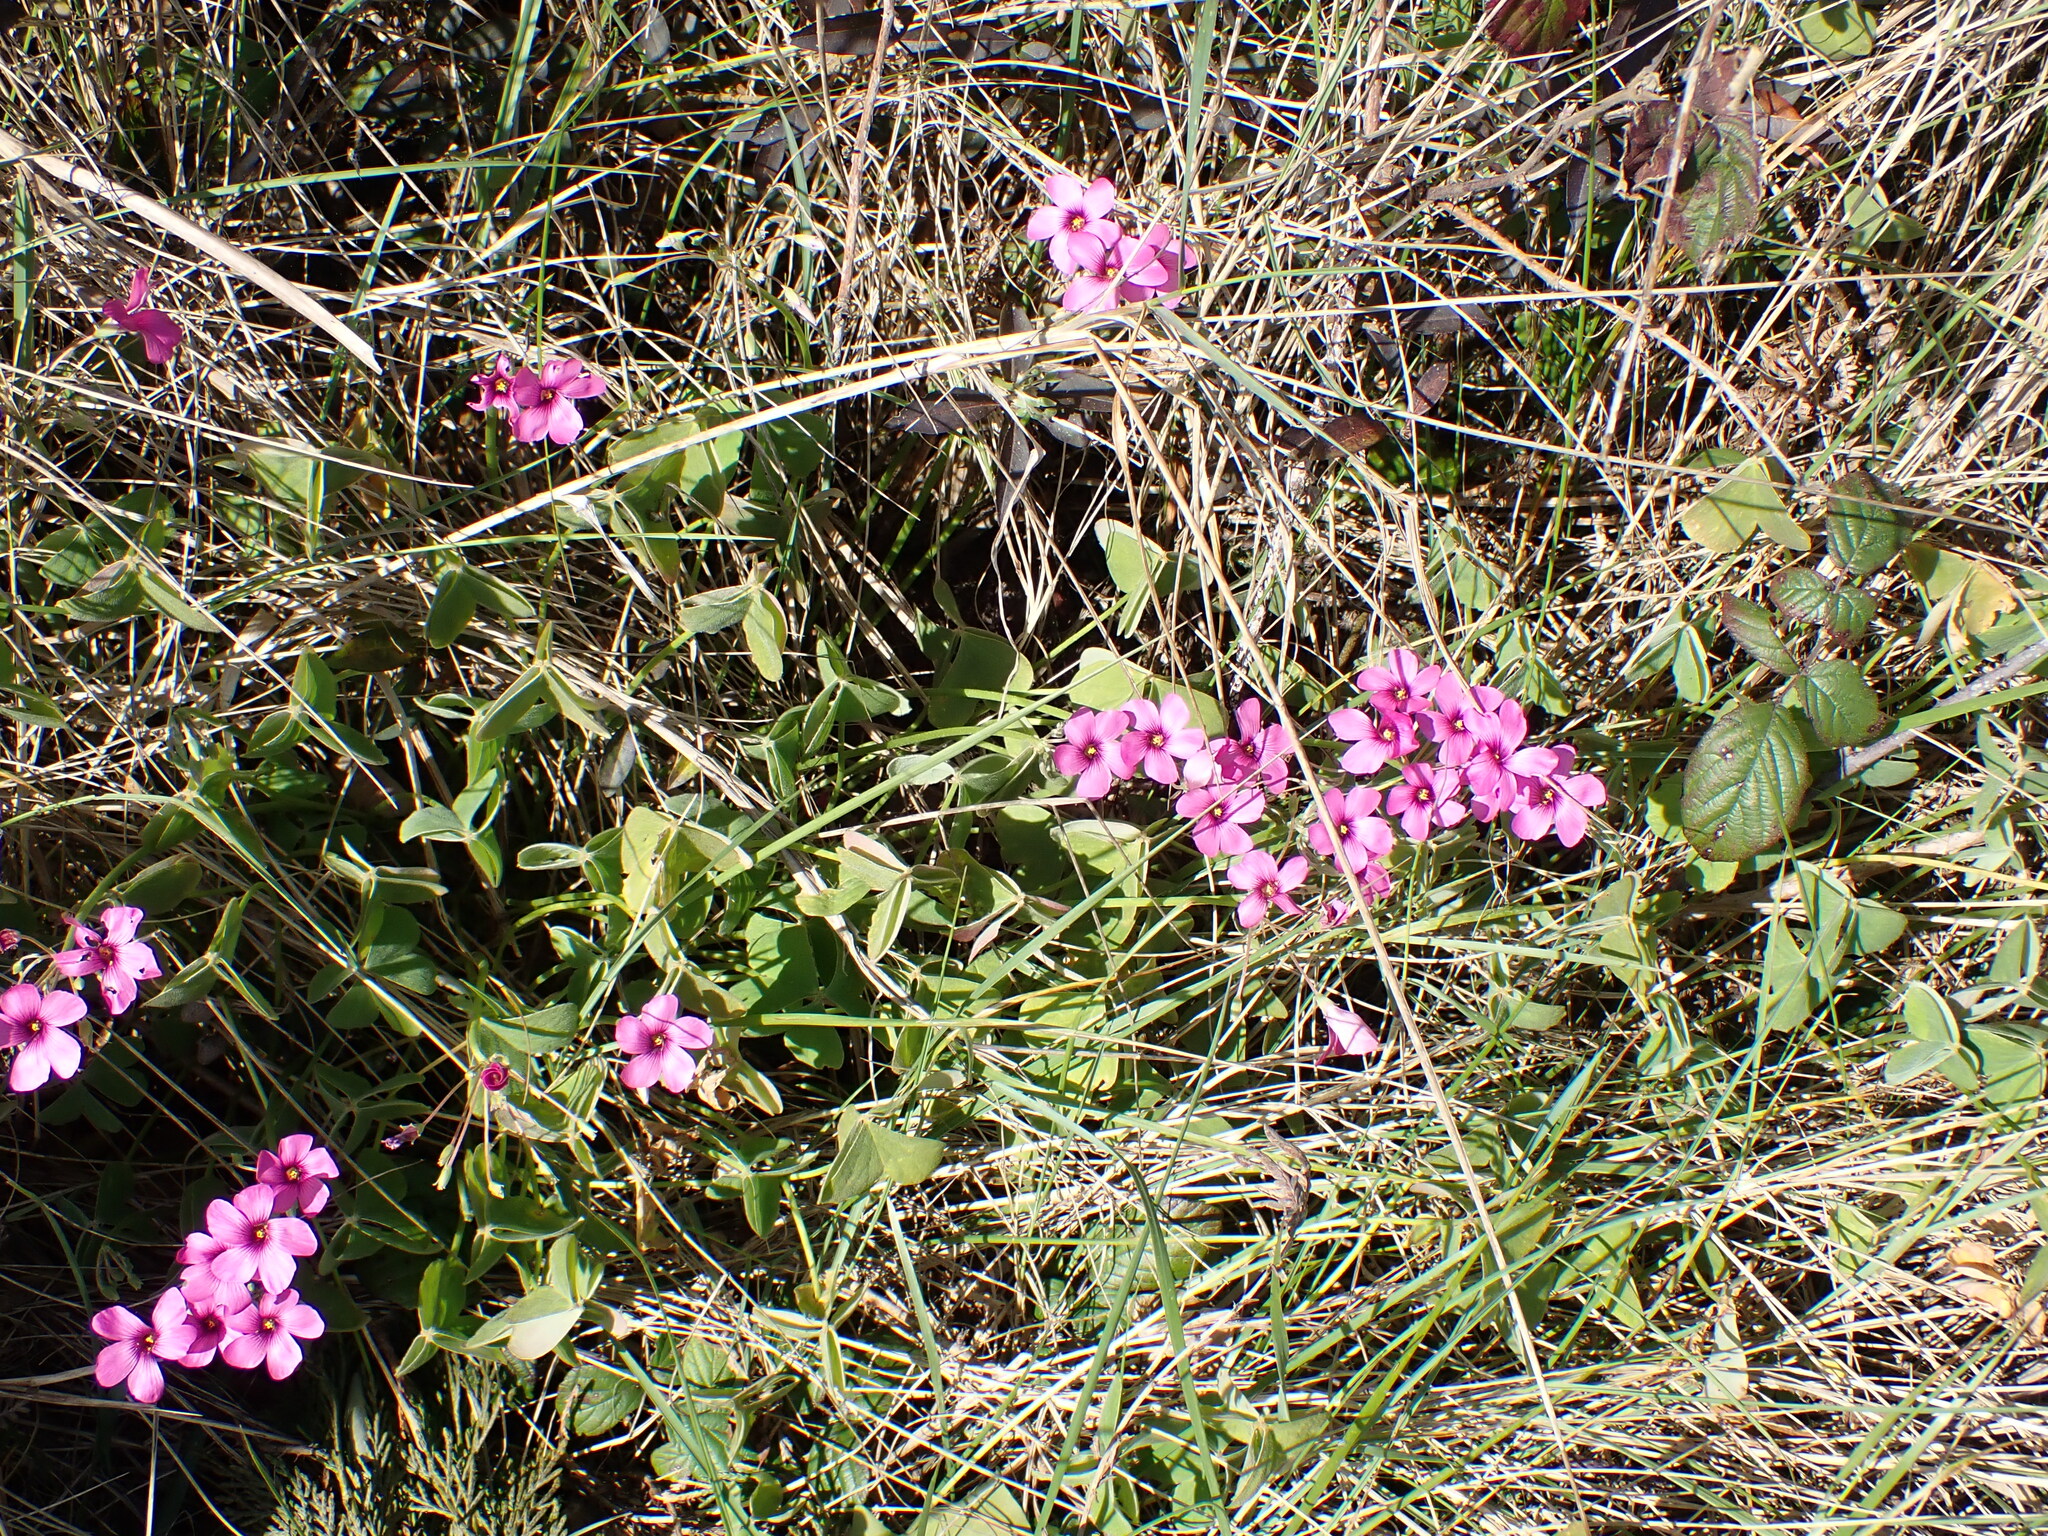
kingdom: Plantae
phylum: Tracheophyta
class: Magnoliopsida
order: Oxalidales
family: Oxalidaceae
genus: Oxalis
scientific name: Oxalis articulata
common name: Pink-sorrel
